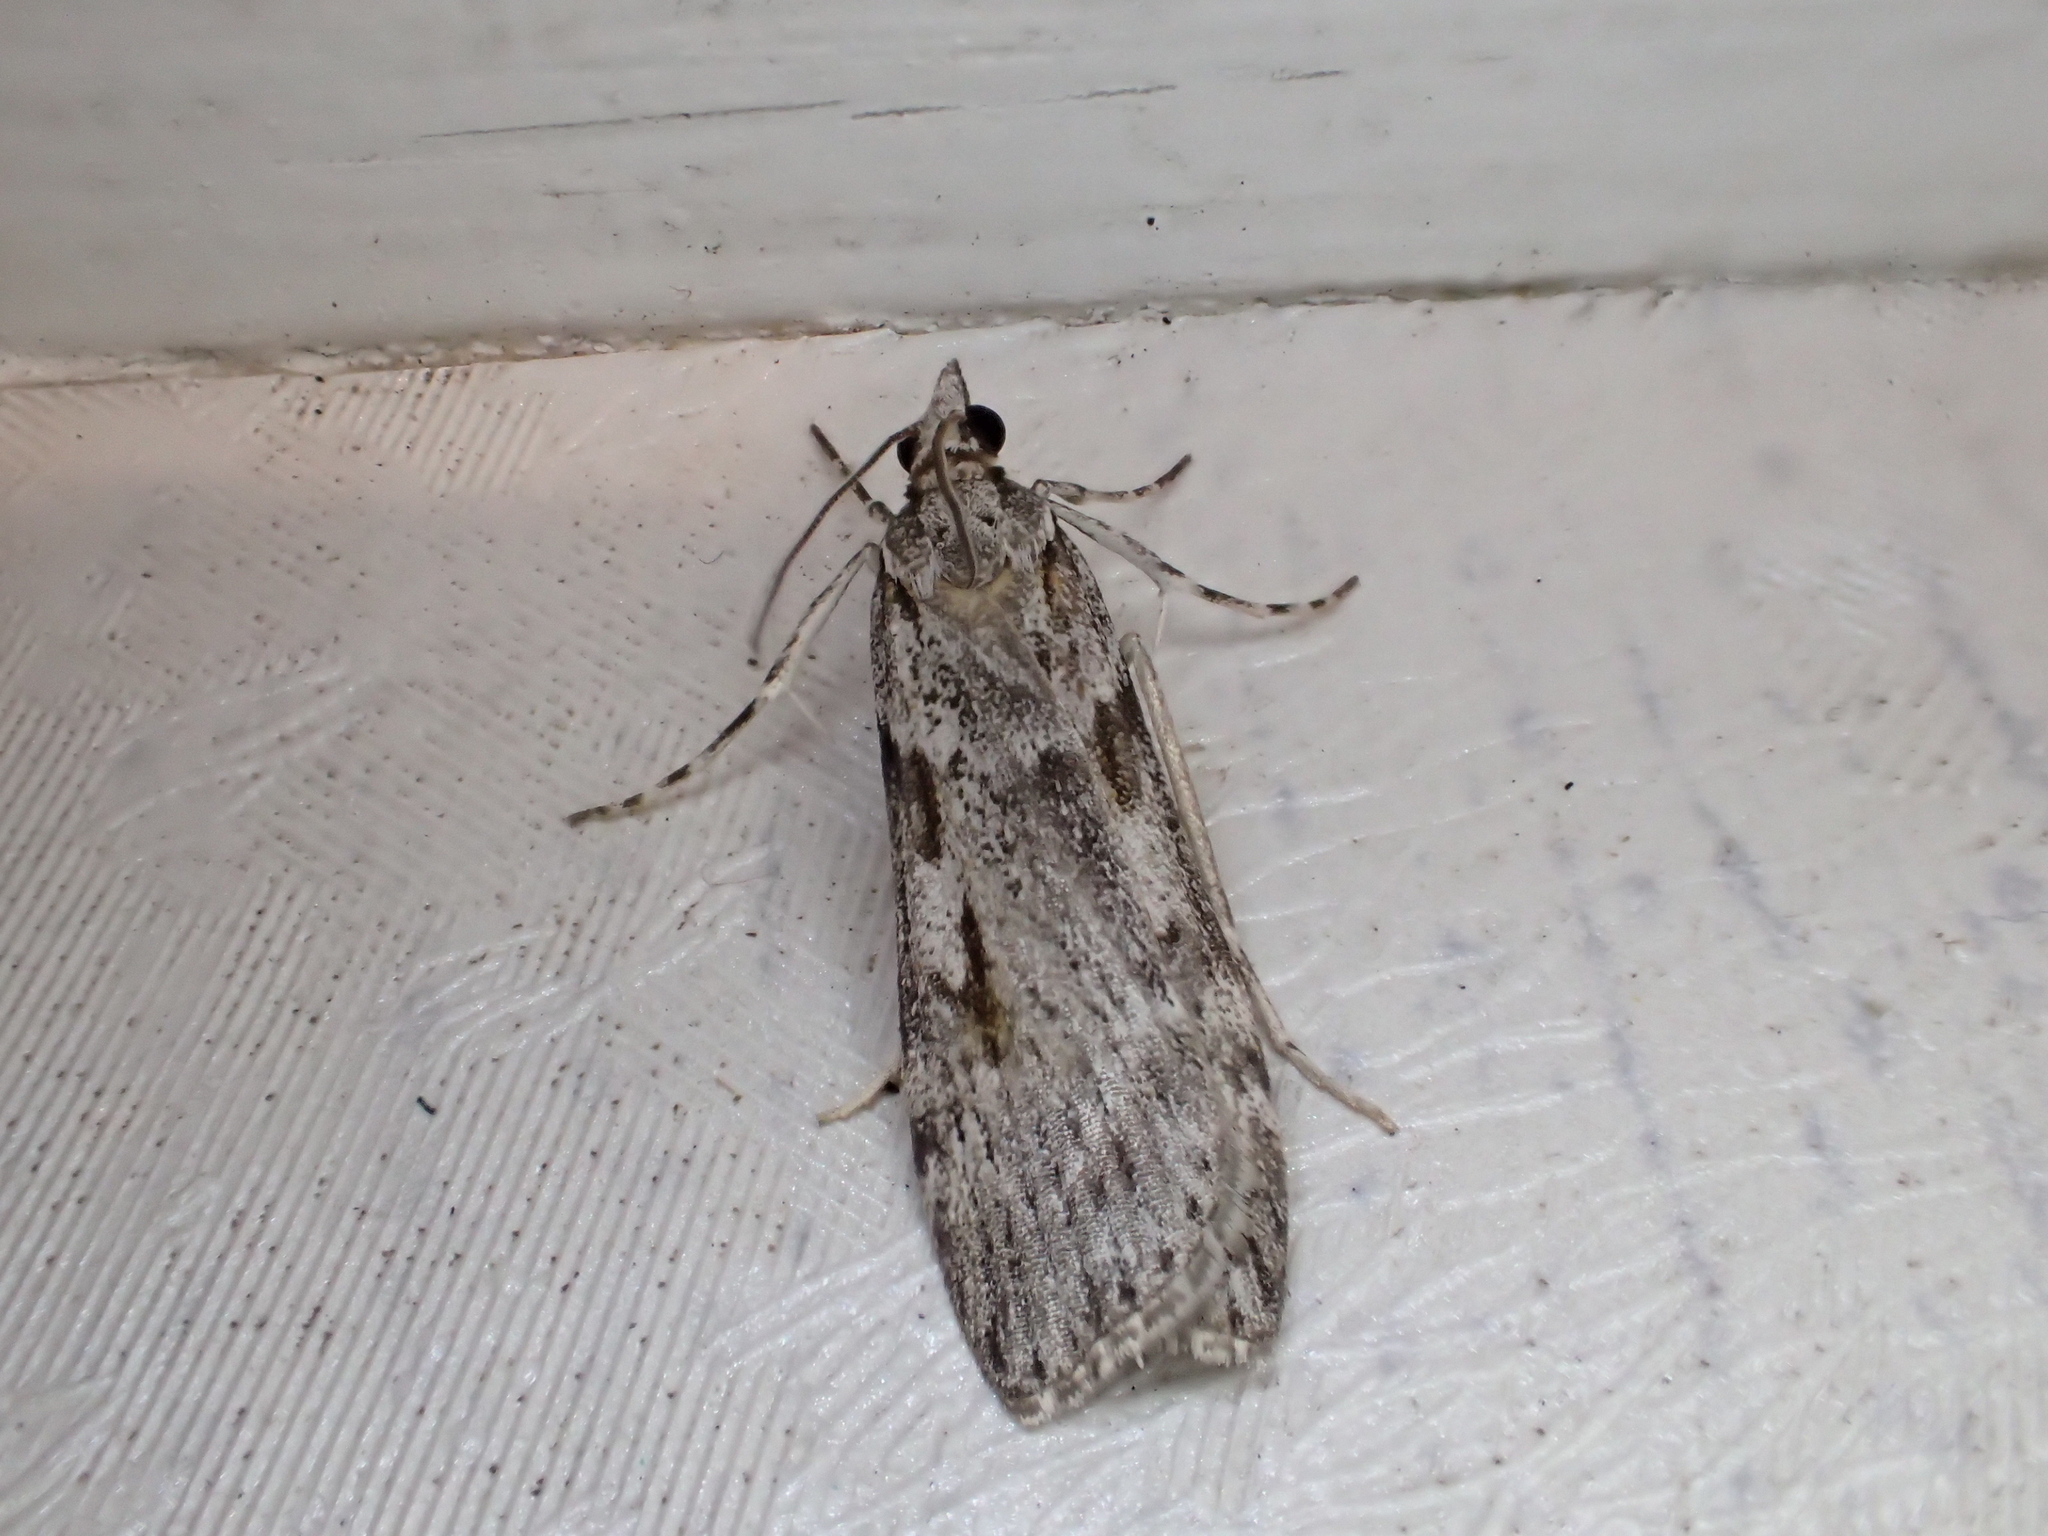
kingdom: Animalia
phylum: Arthropoda
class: Insecta
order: Lepidoptera
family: Crambidae
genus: Scoparia
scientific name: Scoparia halopis
